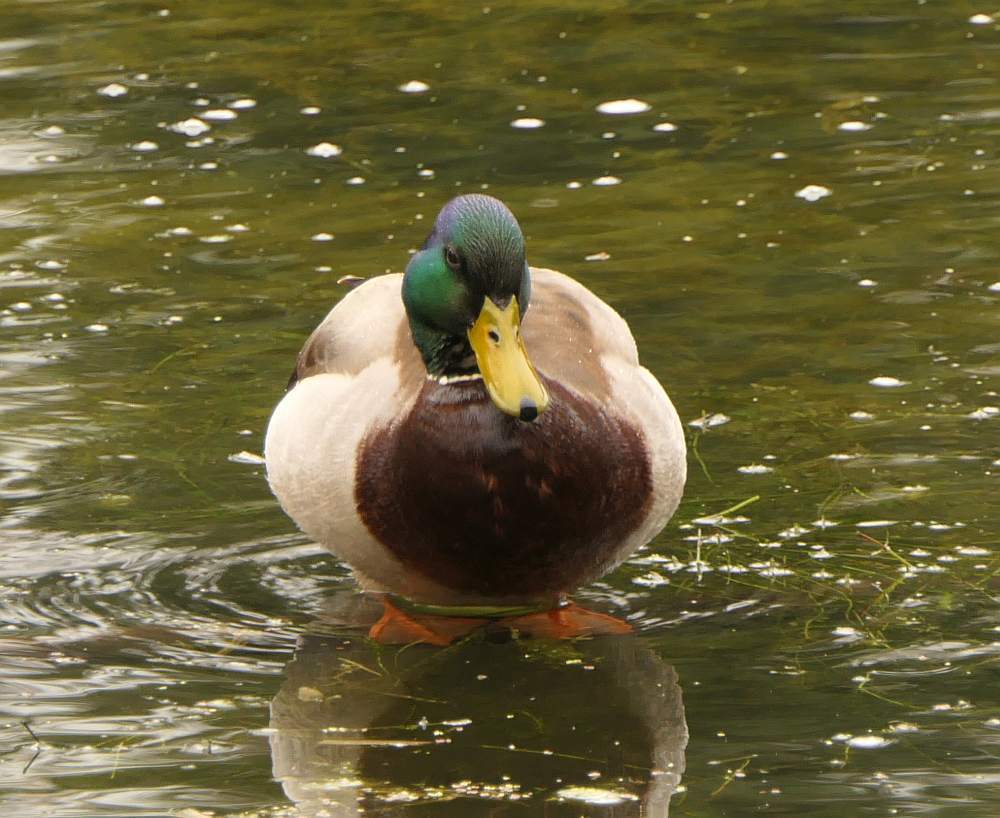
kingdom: Animalia
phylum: Chordata
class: Aves
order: Anseriformes
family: Anatidae
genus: Anas
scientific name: Anas platyrhynchos
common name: Mallard
